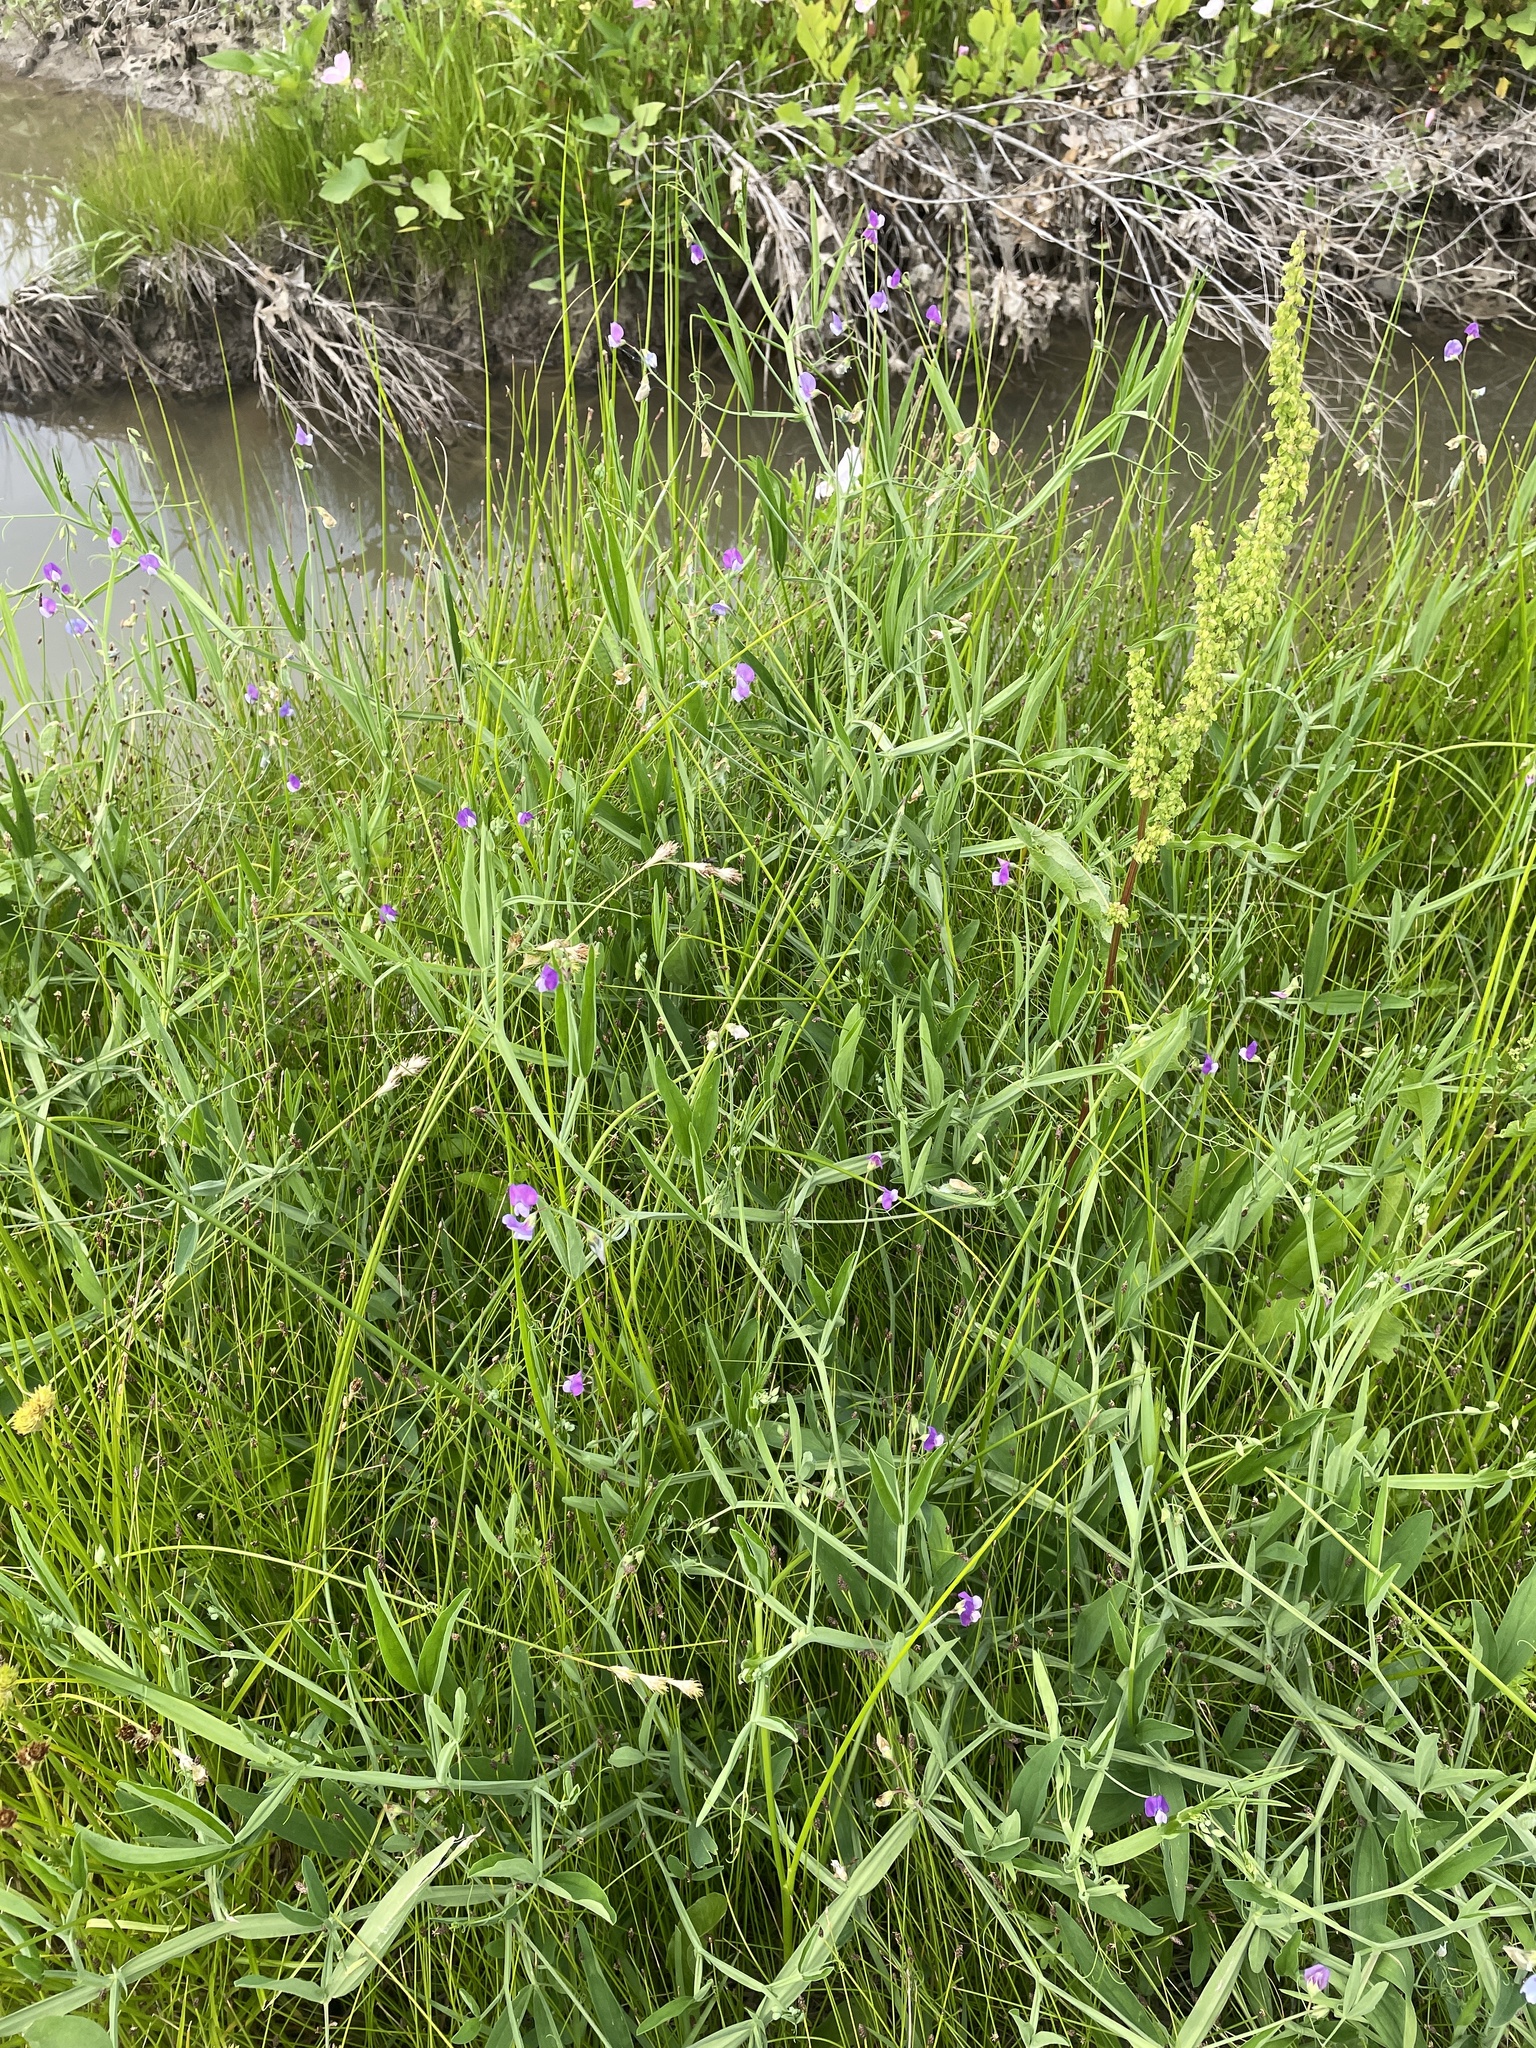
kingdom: Plantae
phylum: Tracheophyta
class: Magnoliopsida
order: Fabales
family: Fabaceae
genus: Lathyrus
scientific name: Lathyrus hirsutus
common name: Hairy vetchling
